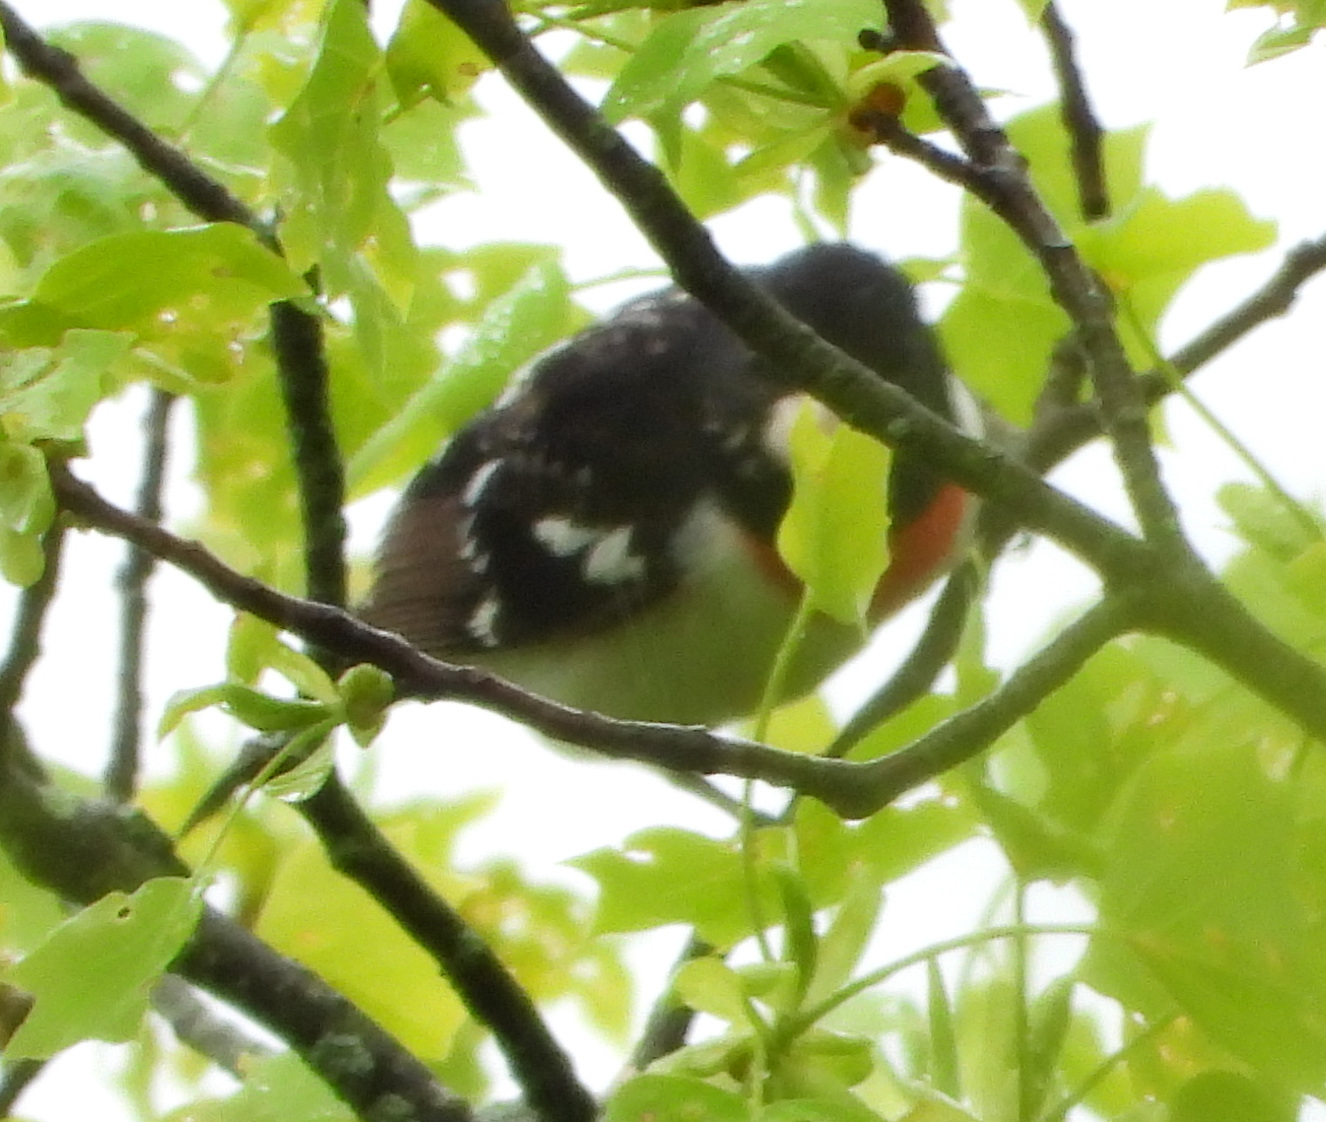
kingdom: Animalia
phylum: Chordata
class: Aves
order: Passeriformes
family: Cardinalidae
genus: Pheucticus
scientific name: Pheucticus ludovicianus
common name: Rose-breasted grosbeak
